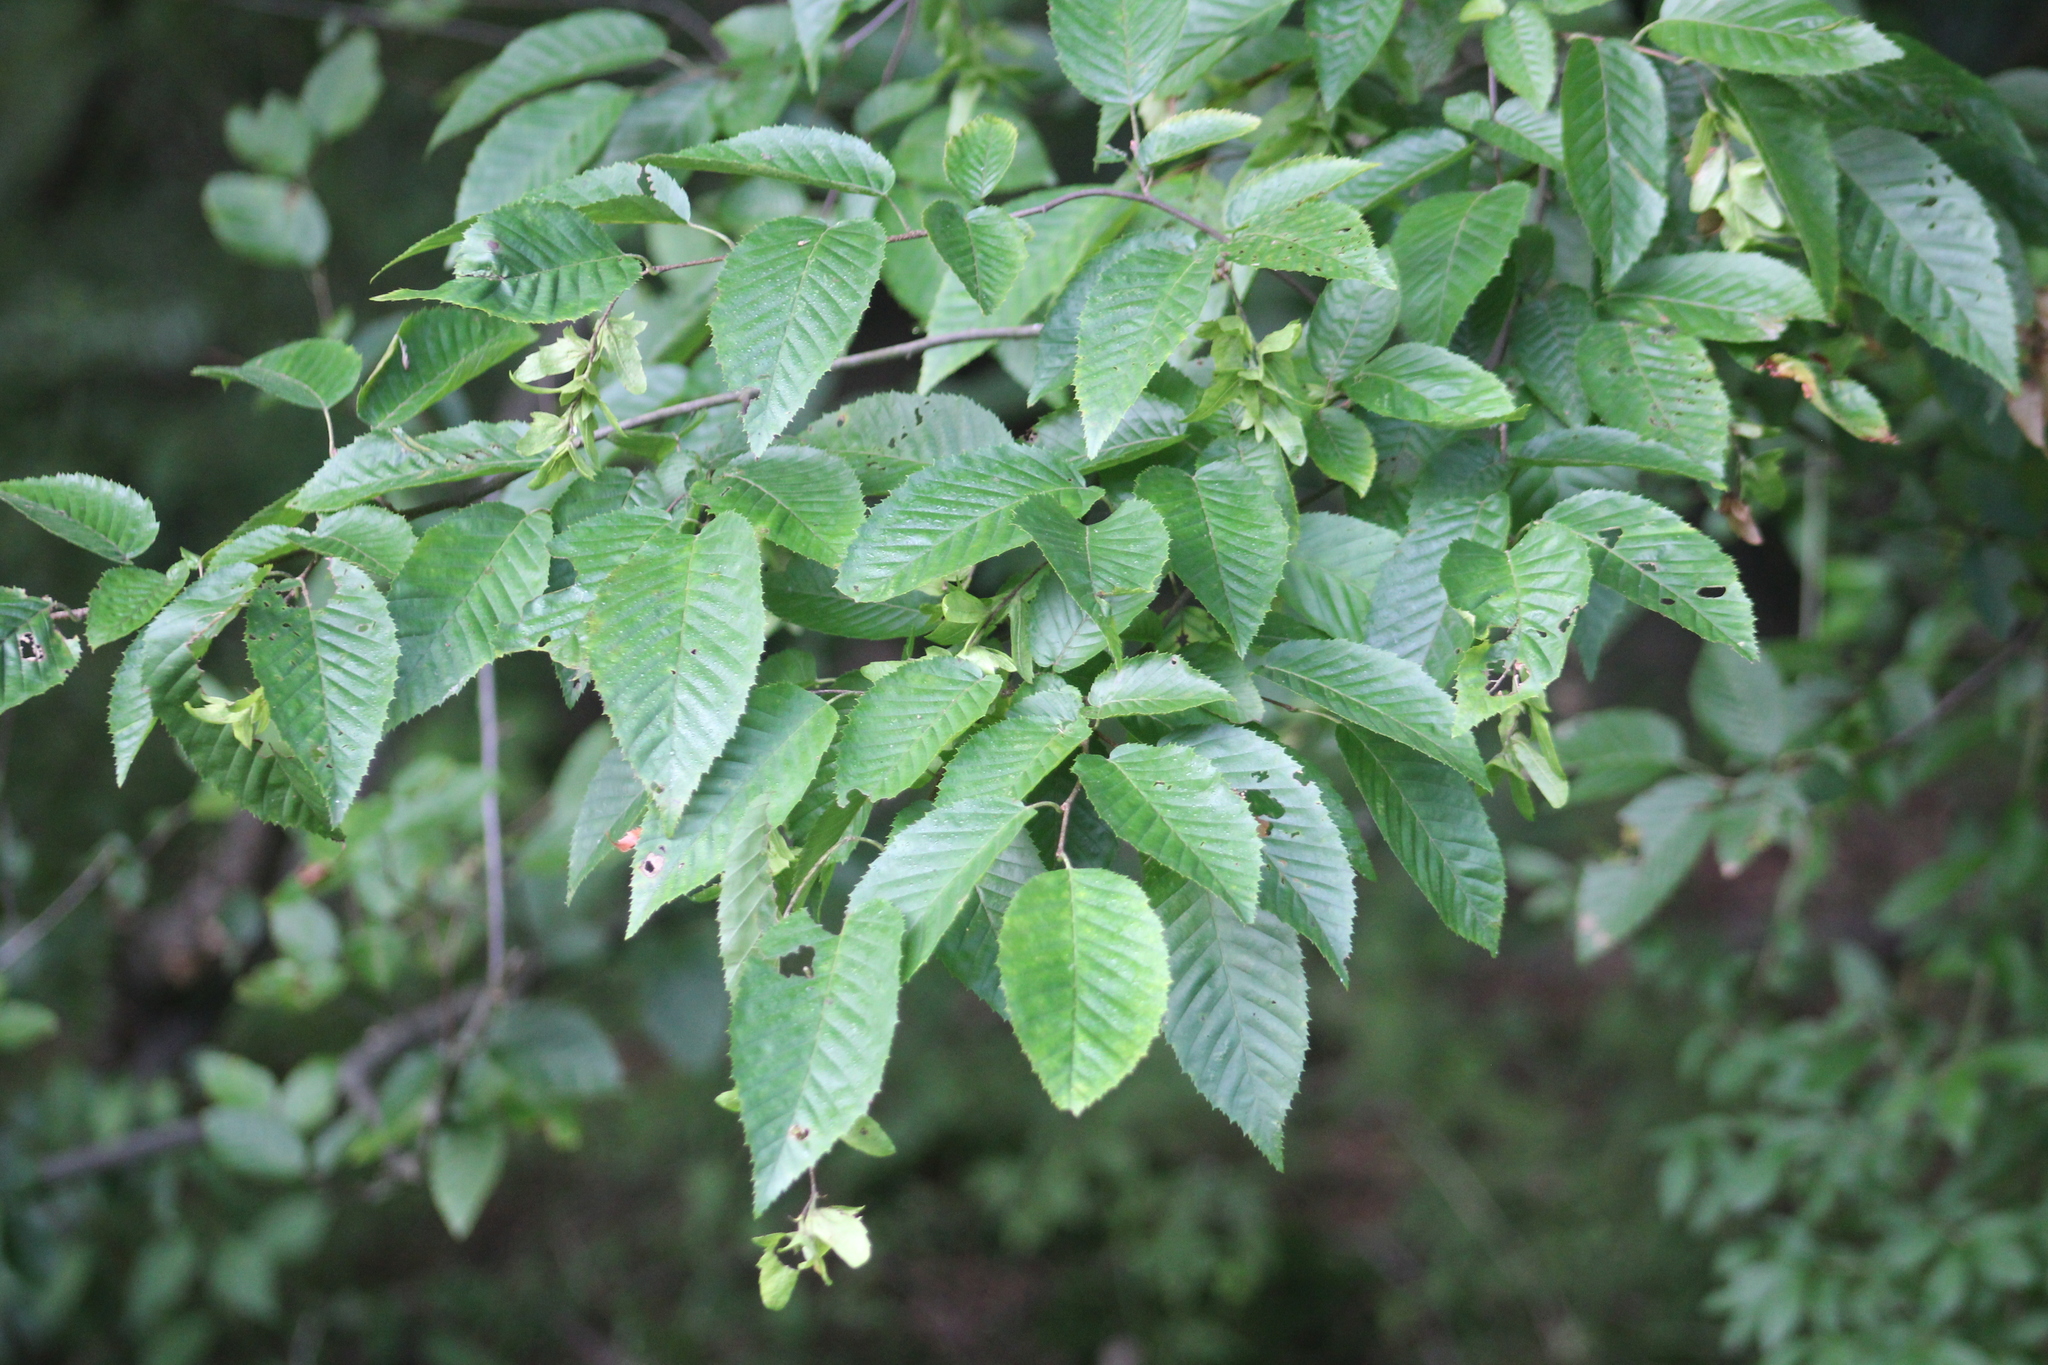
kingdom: Plantae
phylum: Tracheophyta
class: Magnoliopsida
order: Fagales
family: Betulaceae
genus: Carpinus
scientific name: Carpinus caroliniana
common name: American hornbeam
